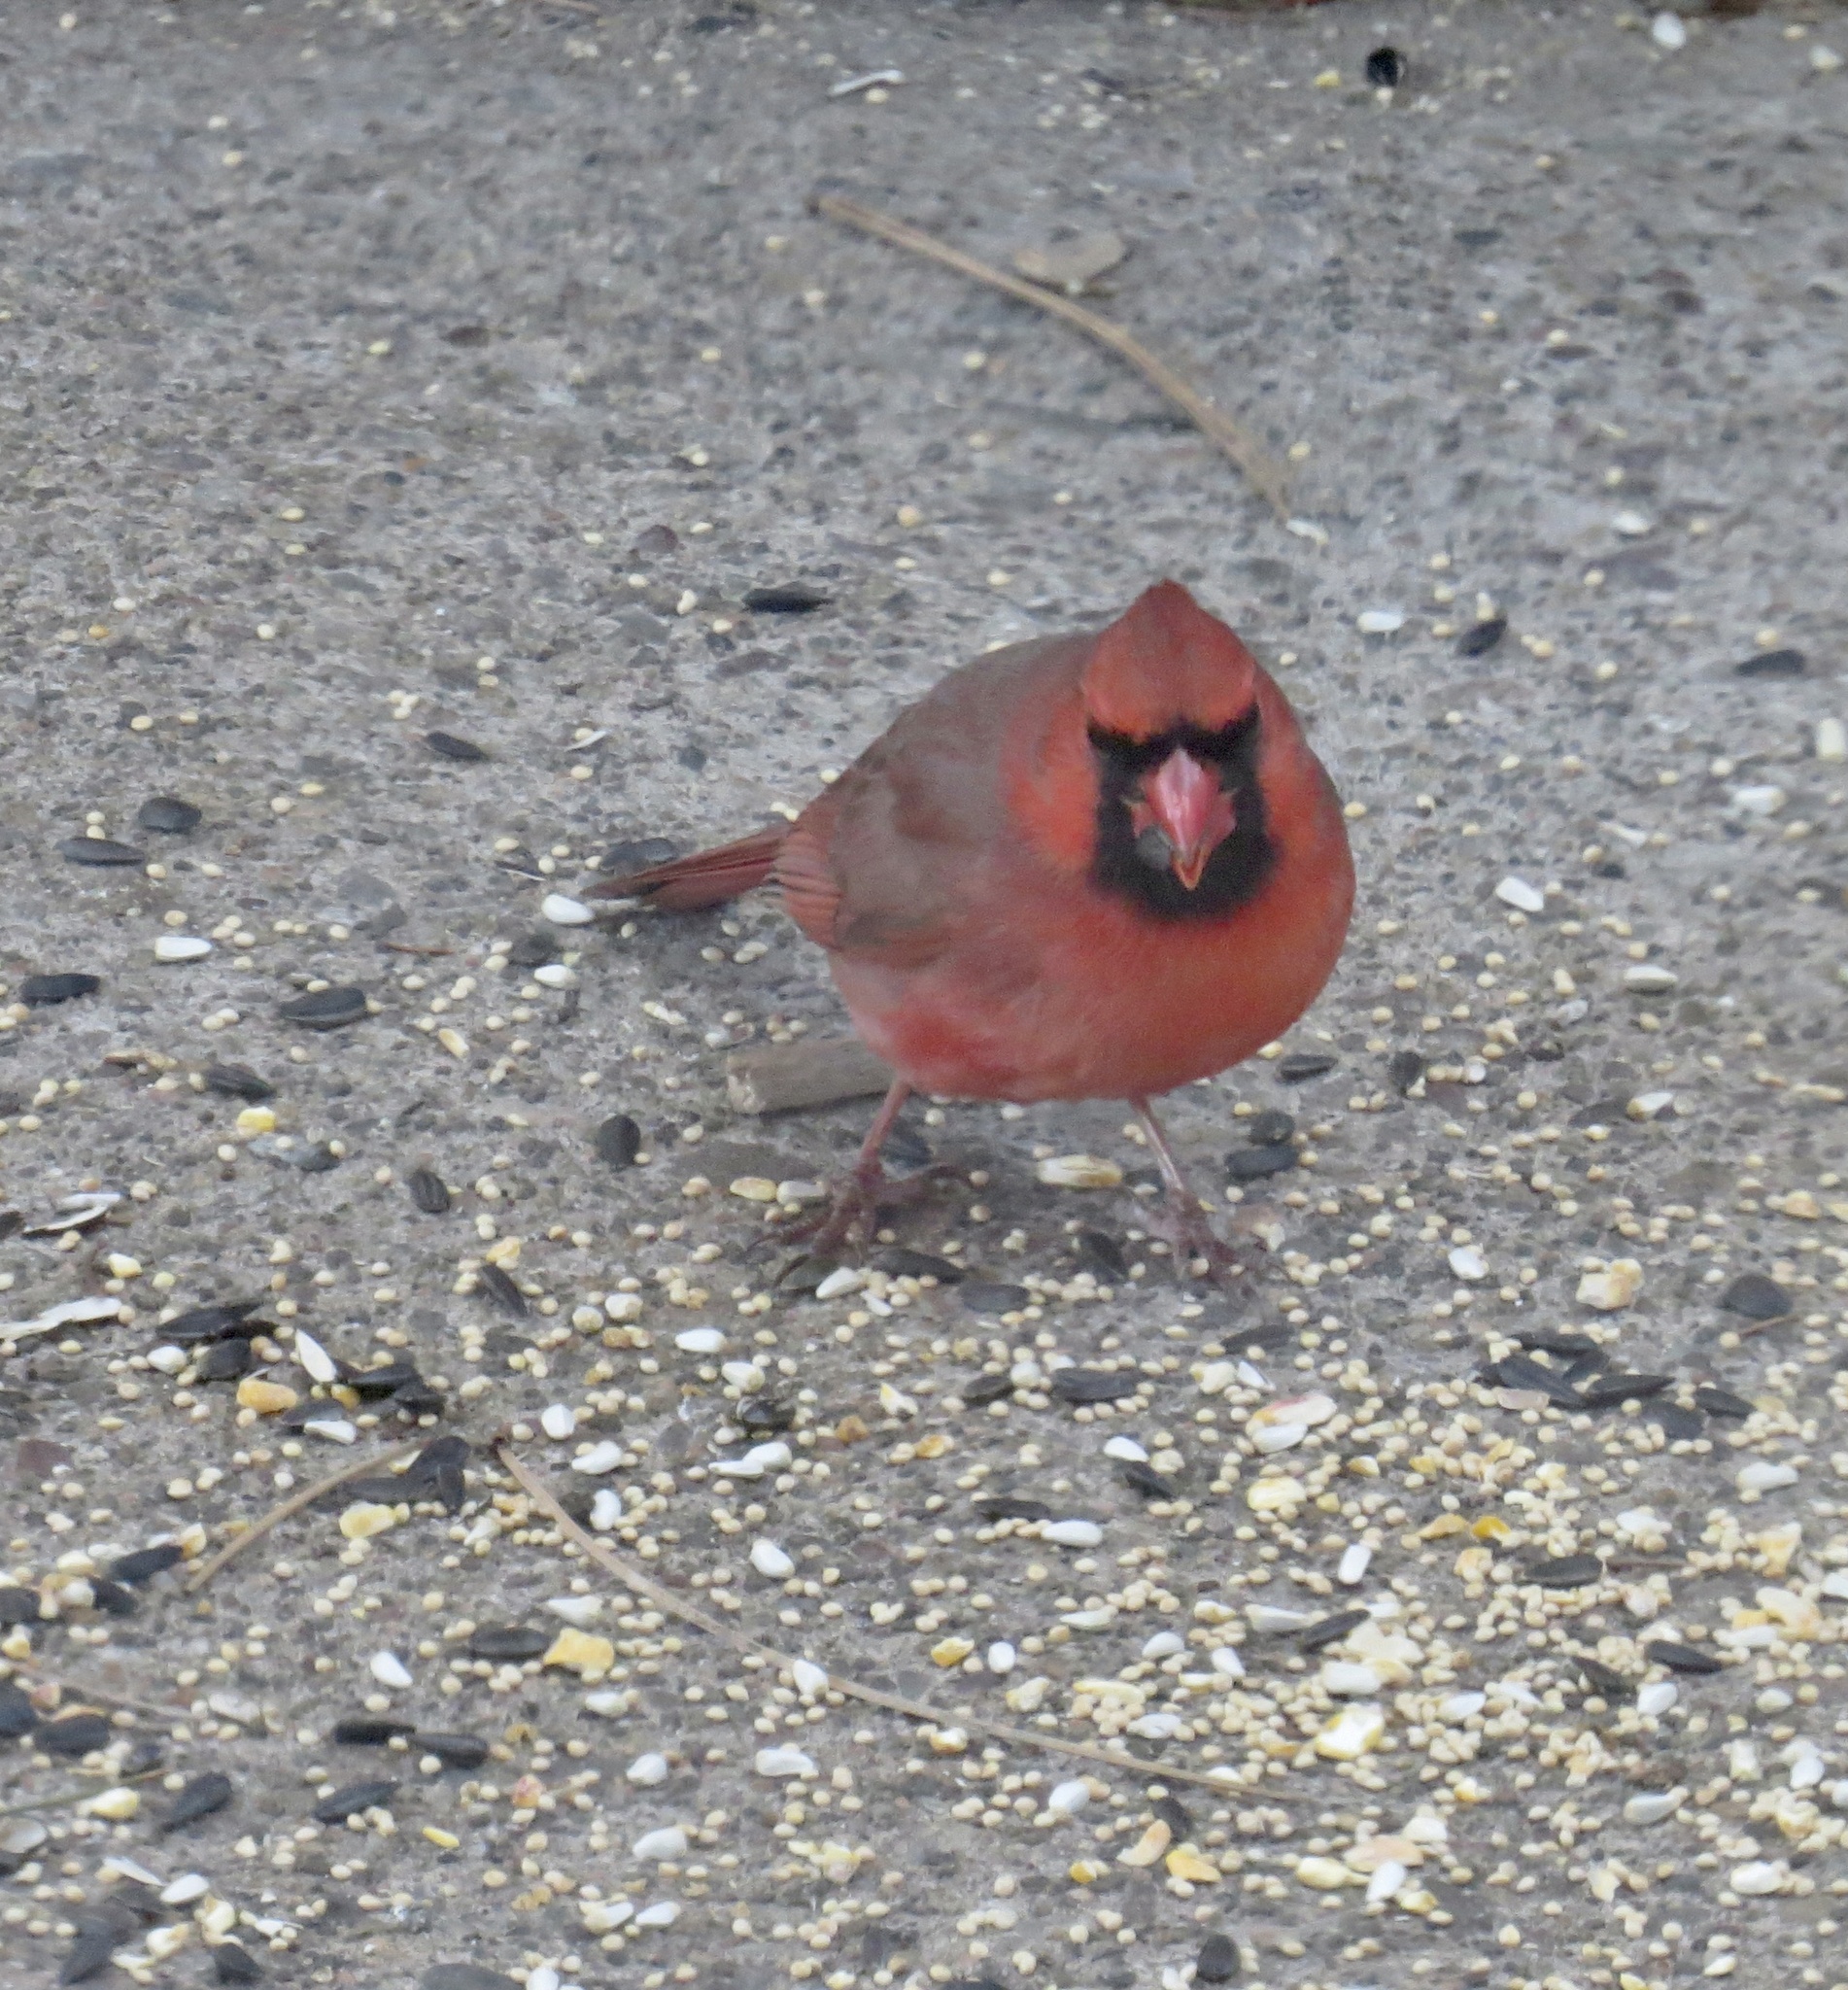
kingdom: Animalia
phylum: Chordata
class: Aves
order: Passeriformes
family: Cardinalidae
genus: Cardinalis
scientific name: Cardinalis cardinalis
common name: Northern cardinal
